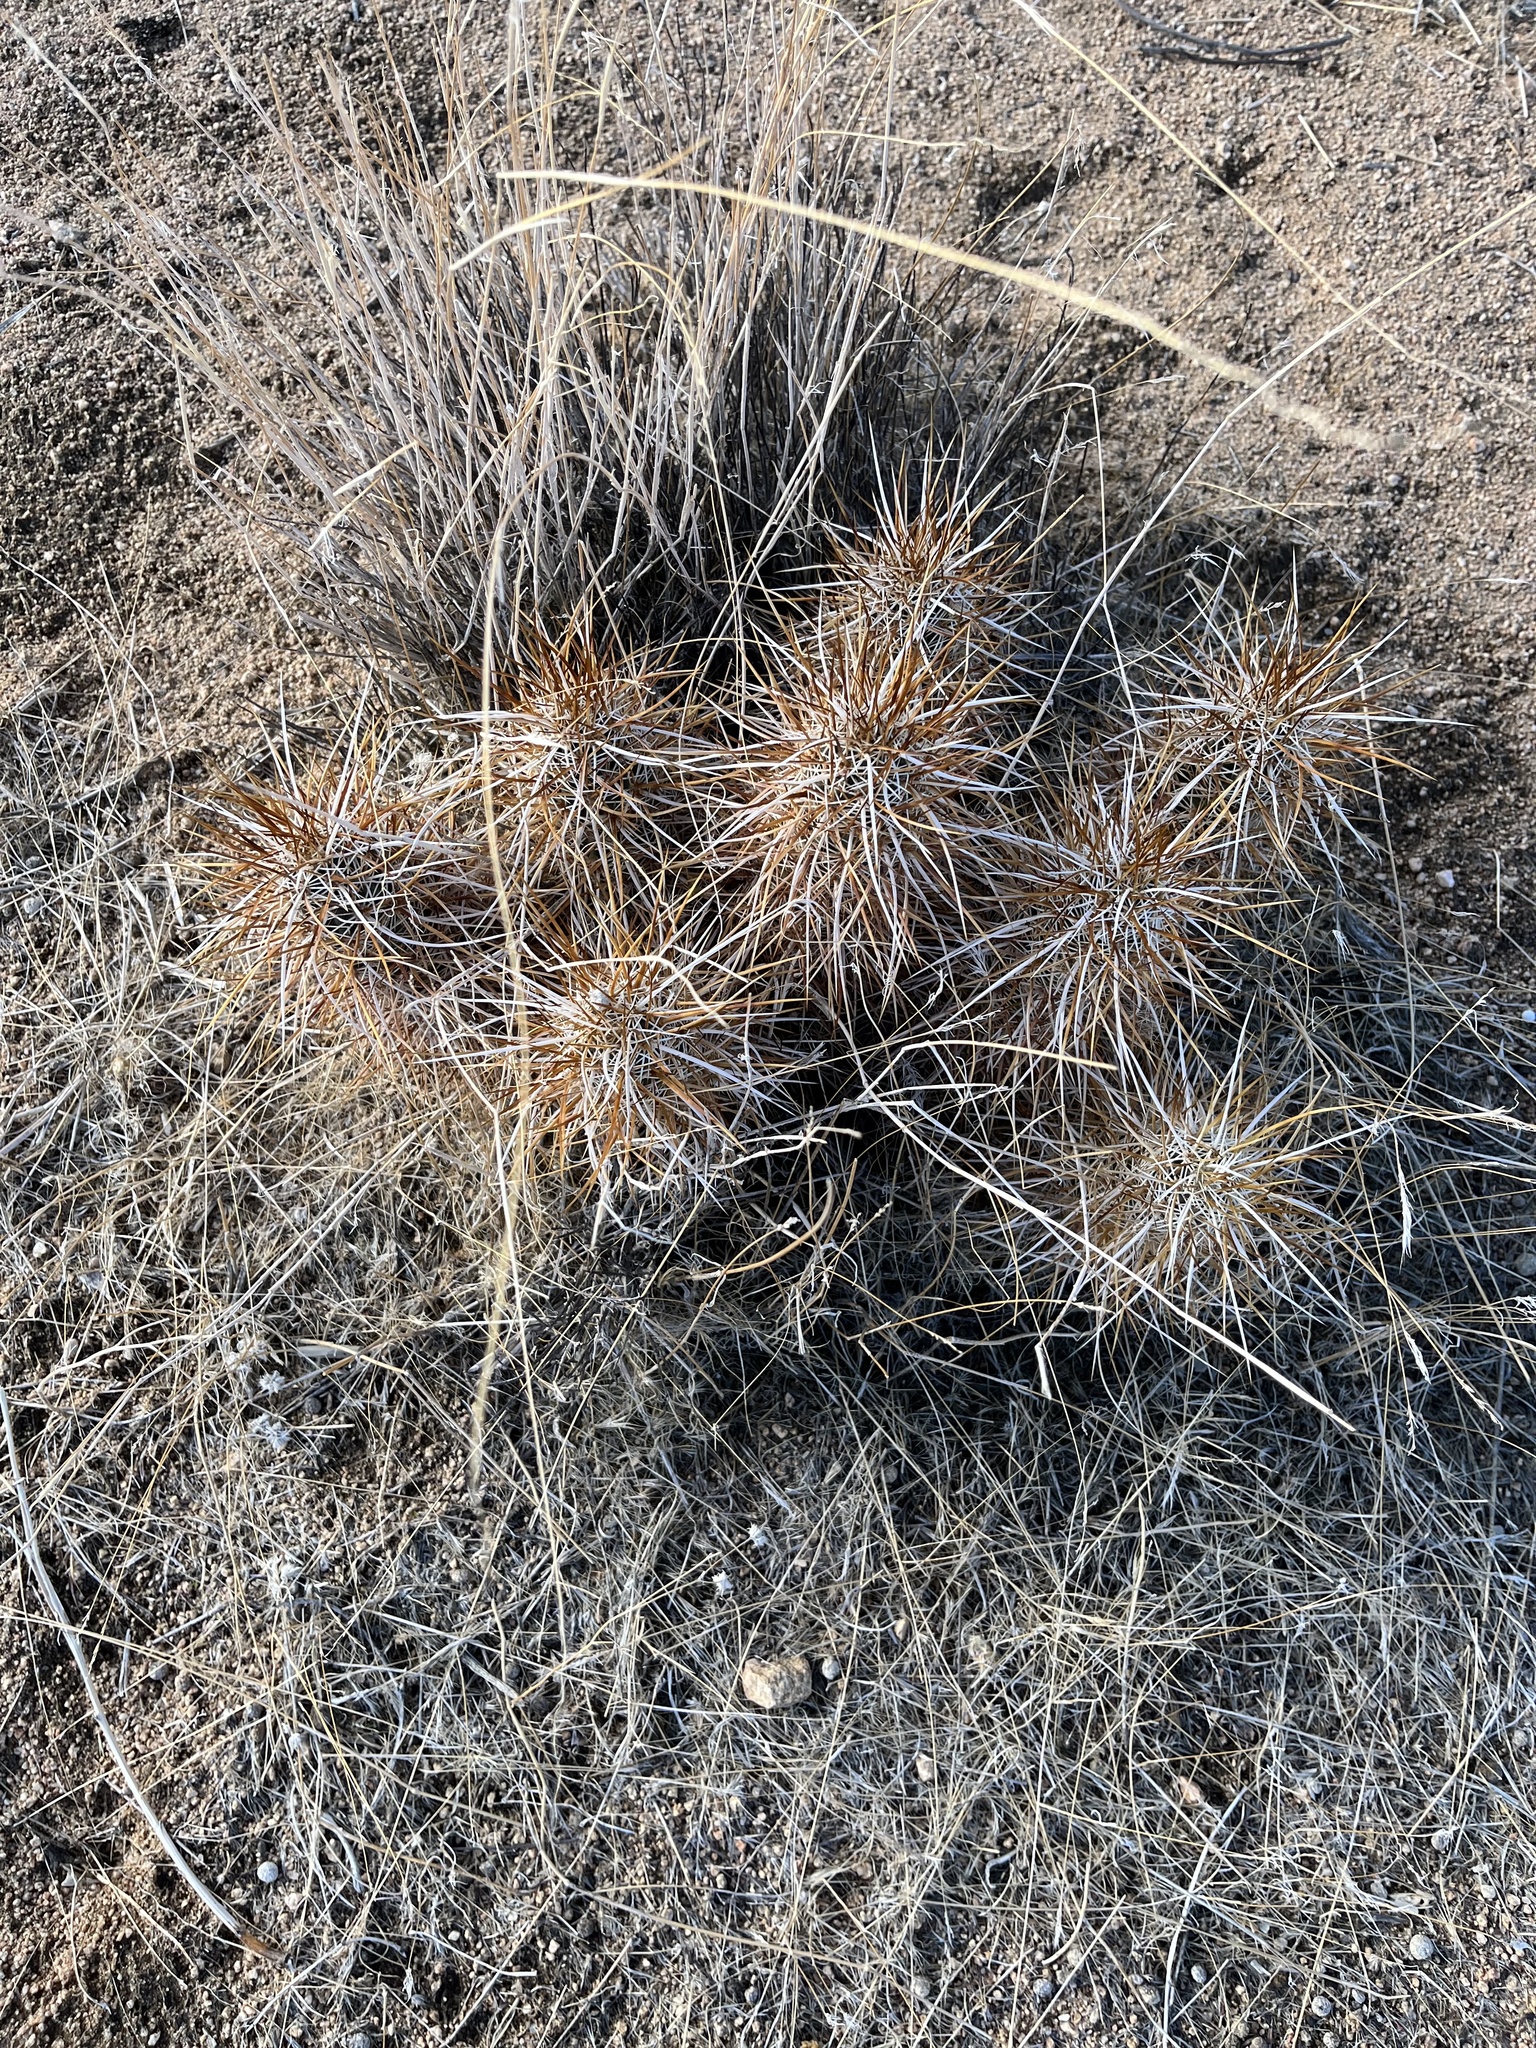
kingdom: Plantae
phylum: Tracheophyta
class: Magnoliopsida
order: Caryophyllales
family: Cactaceae
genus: Echinocereus
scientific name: Echinocereus engelmannii
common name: Engelmann's hedgehog cactus
